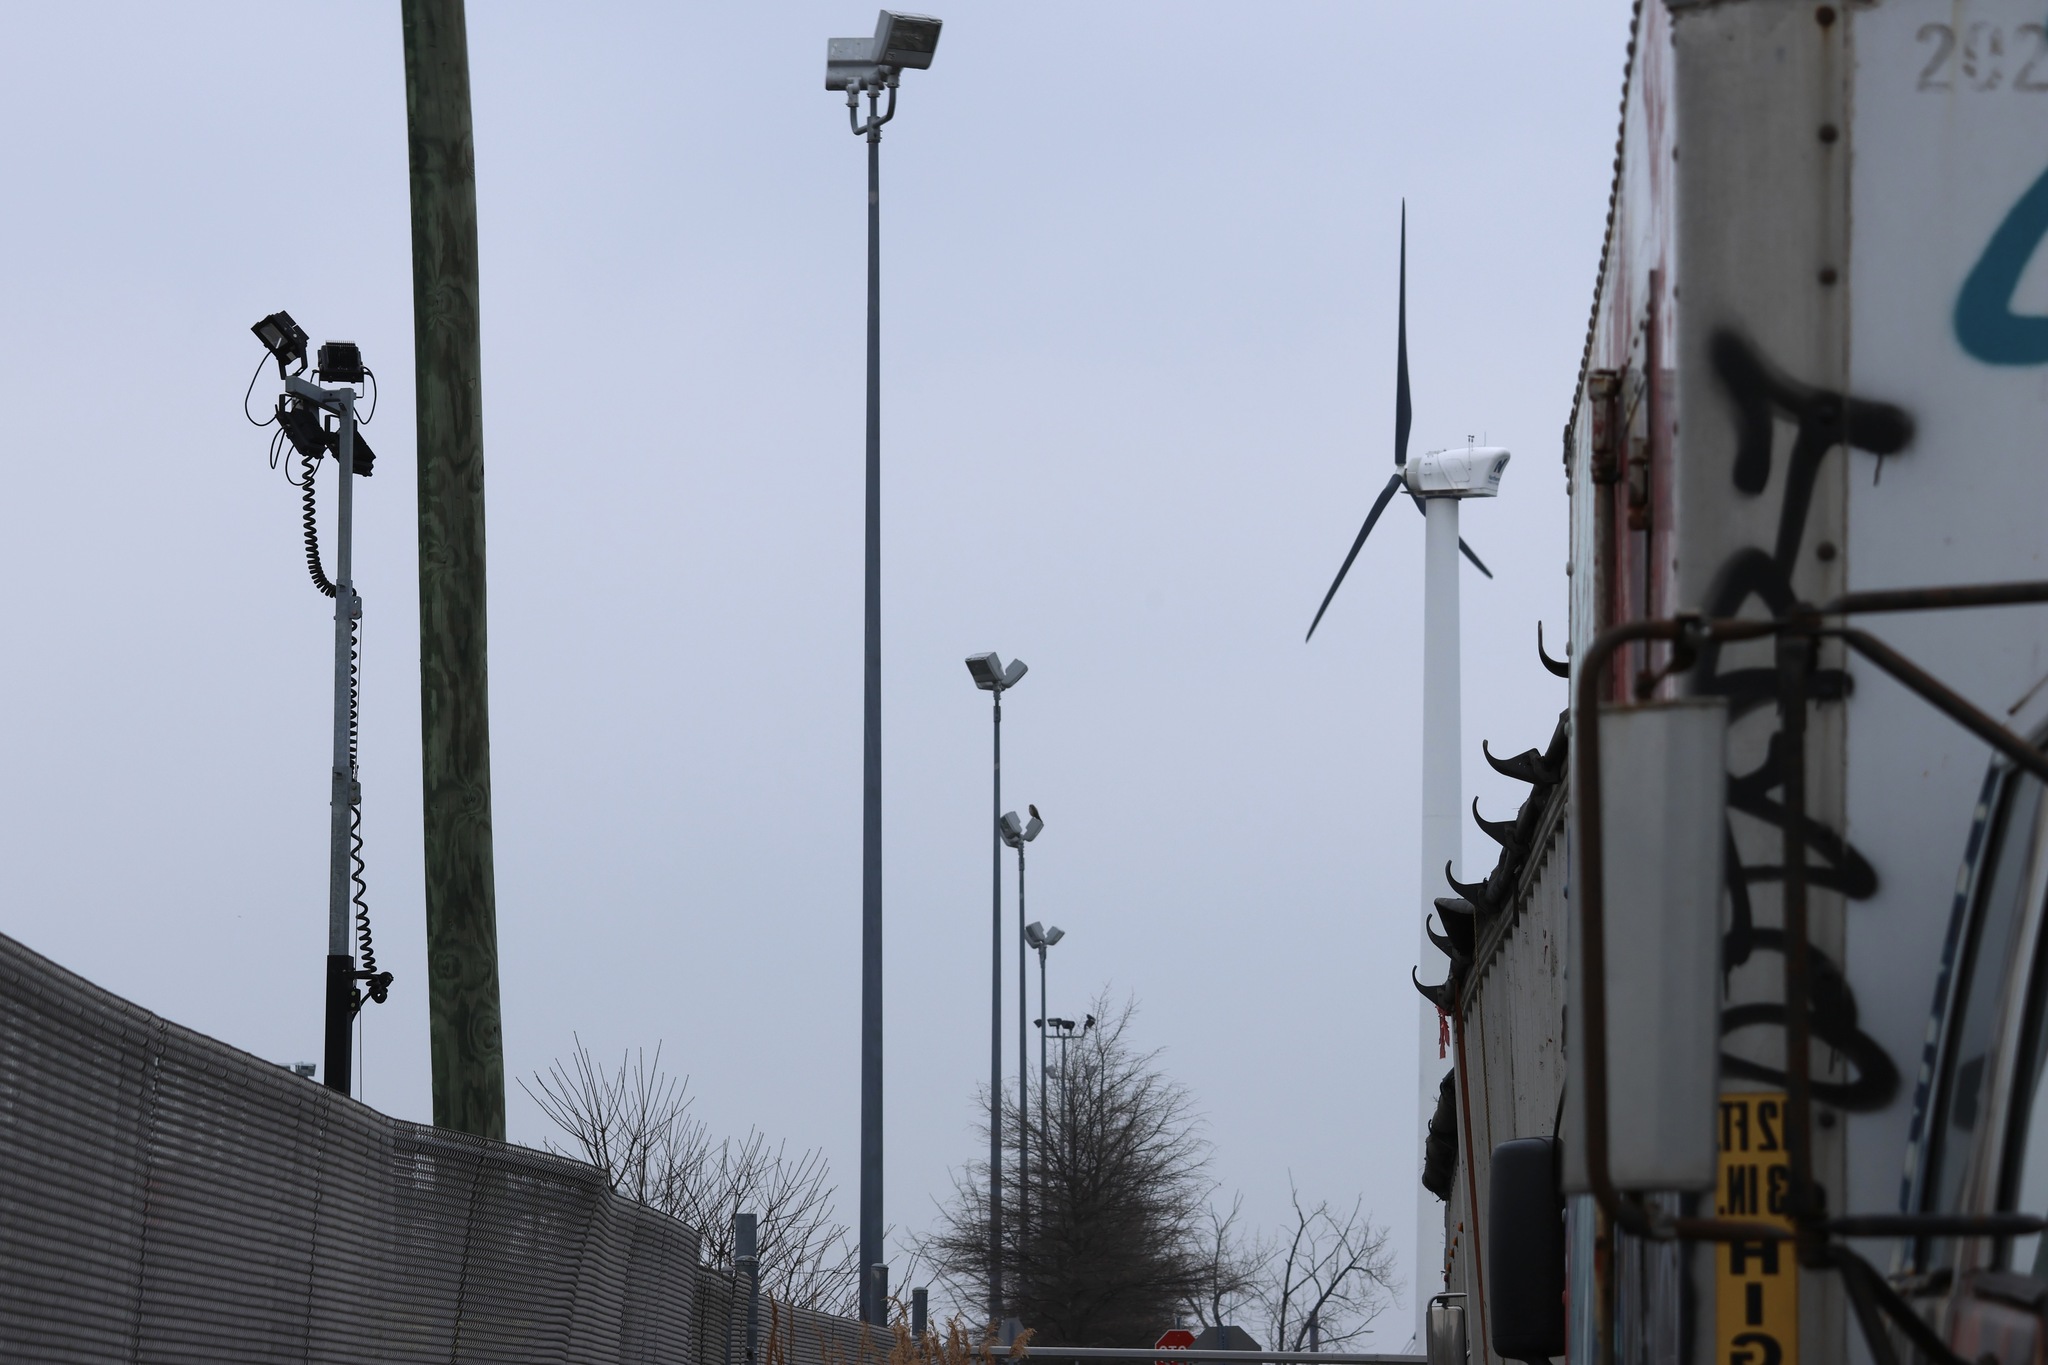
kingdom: Animalia
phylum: Chordata
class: Aves
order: Accipitriformes
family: Accipitridae
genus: Buteo
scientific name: Buteo swainsoni
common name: Swainson's hawk
